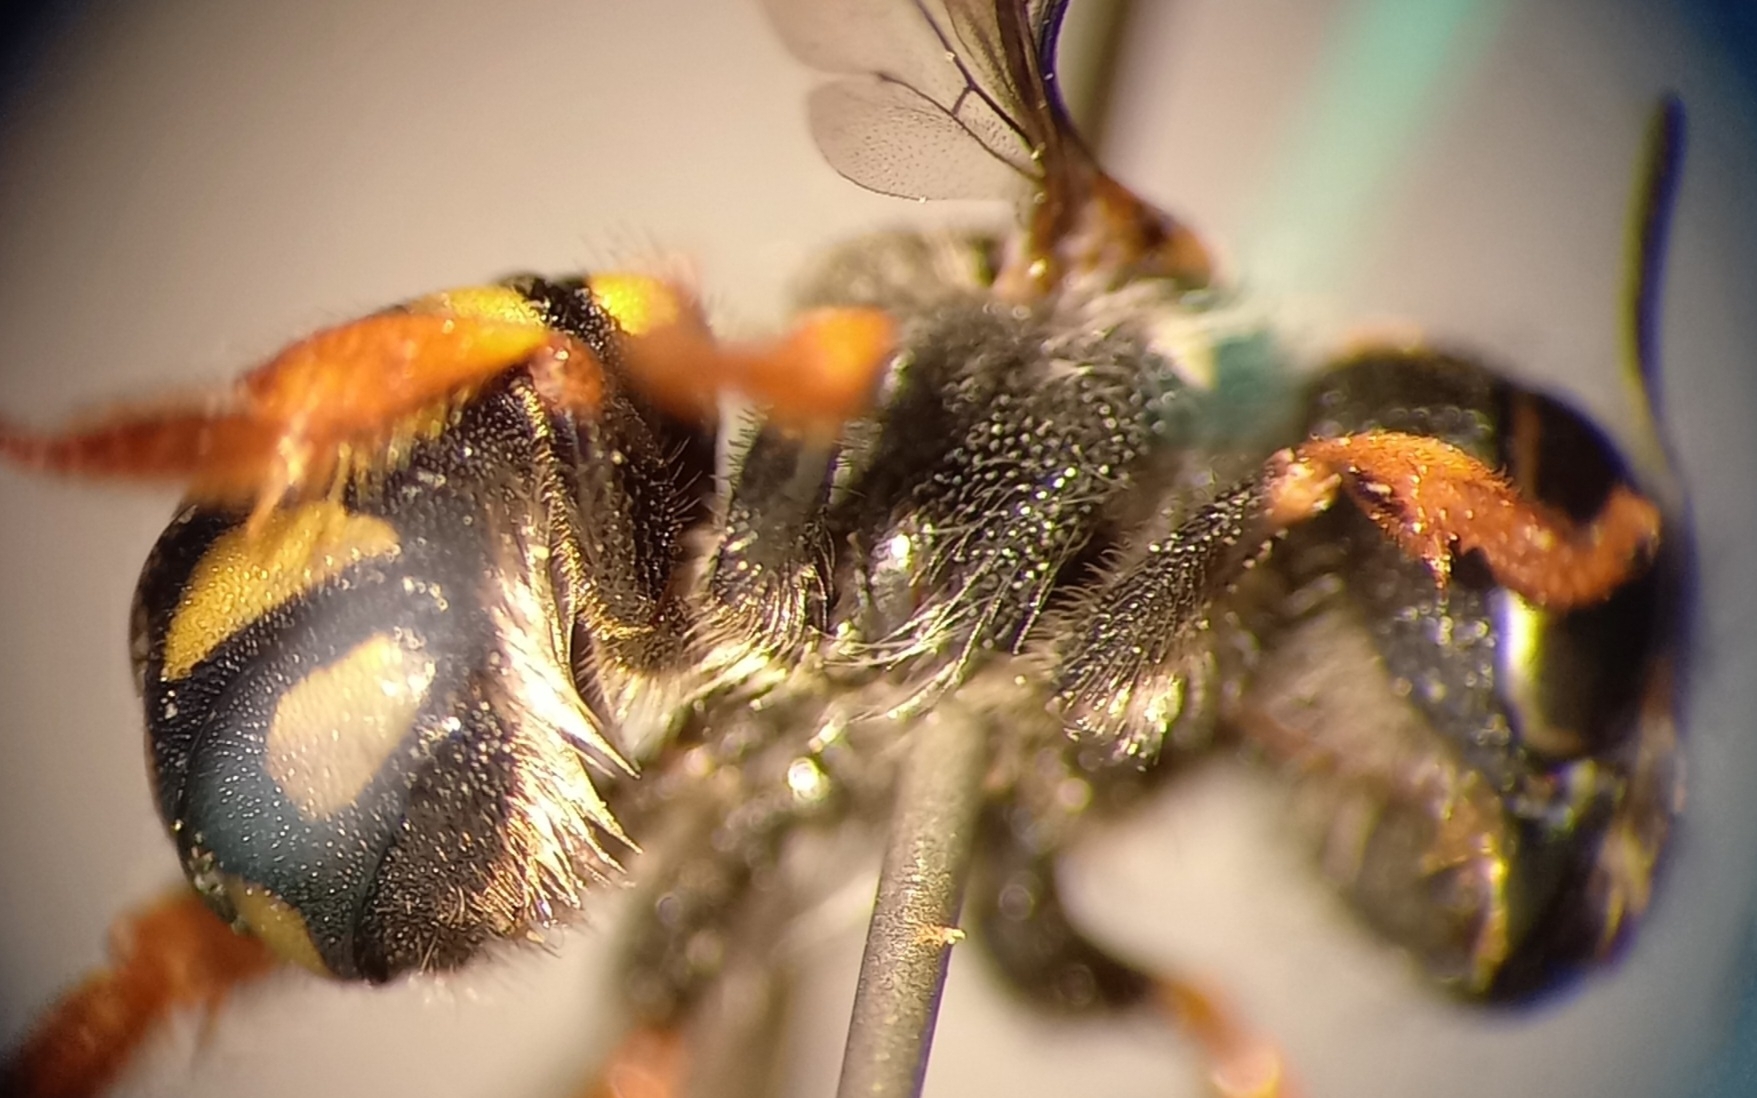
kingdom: Animalia
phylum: Arthropoda
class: Insecta
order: Hymenoptera
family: Megachilidae
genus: Pseudoanthidium
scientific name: Pseudoanthidium nanum
